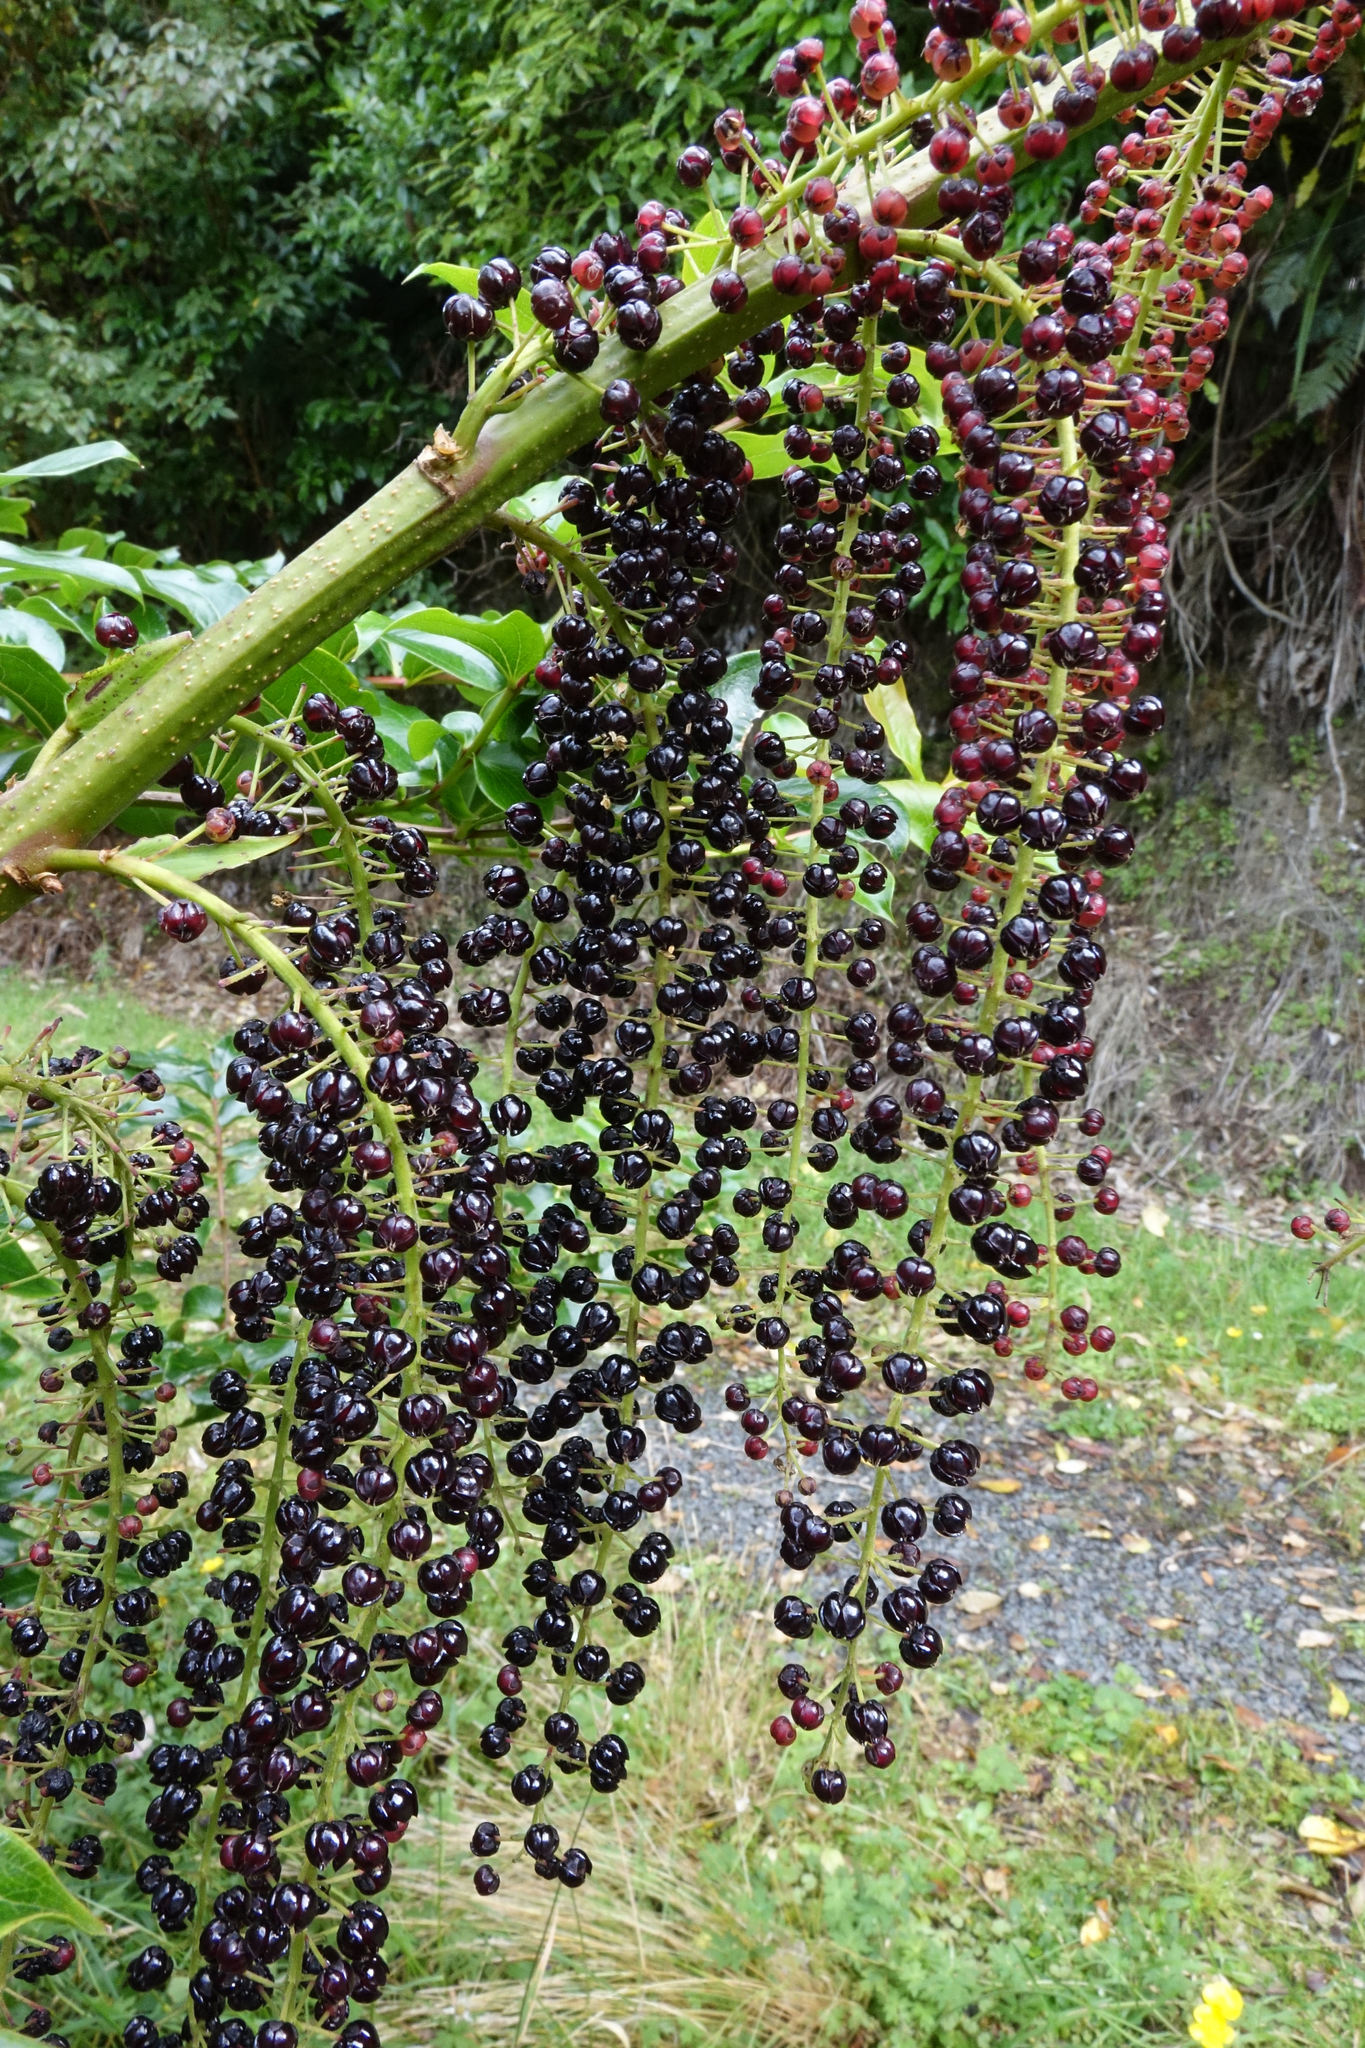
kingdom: Plantae
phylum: Tracheophyta
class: Magnoliopsida
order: Cucurbitales
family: Coriariaceae
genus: Coriaria
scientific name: Coriaria arborea
